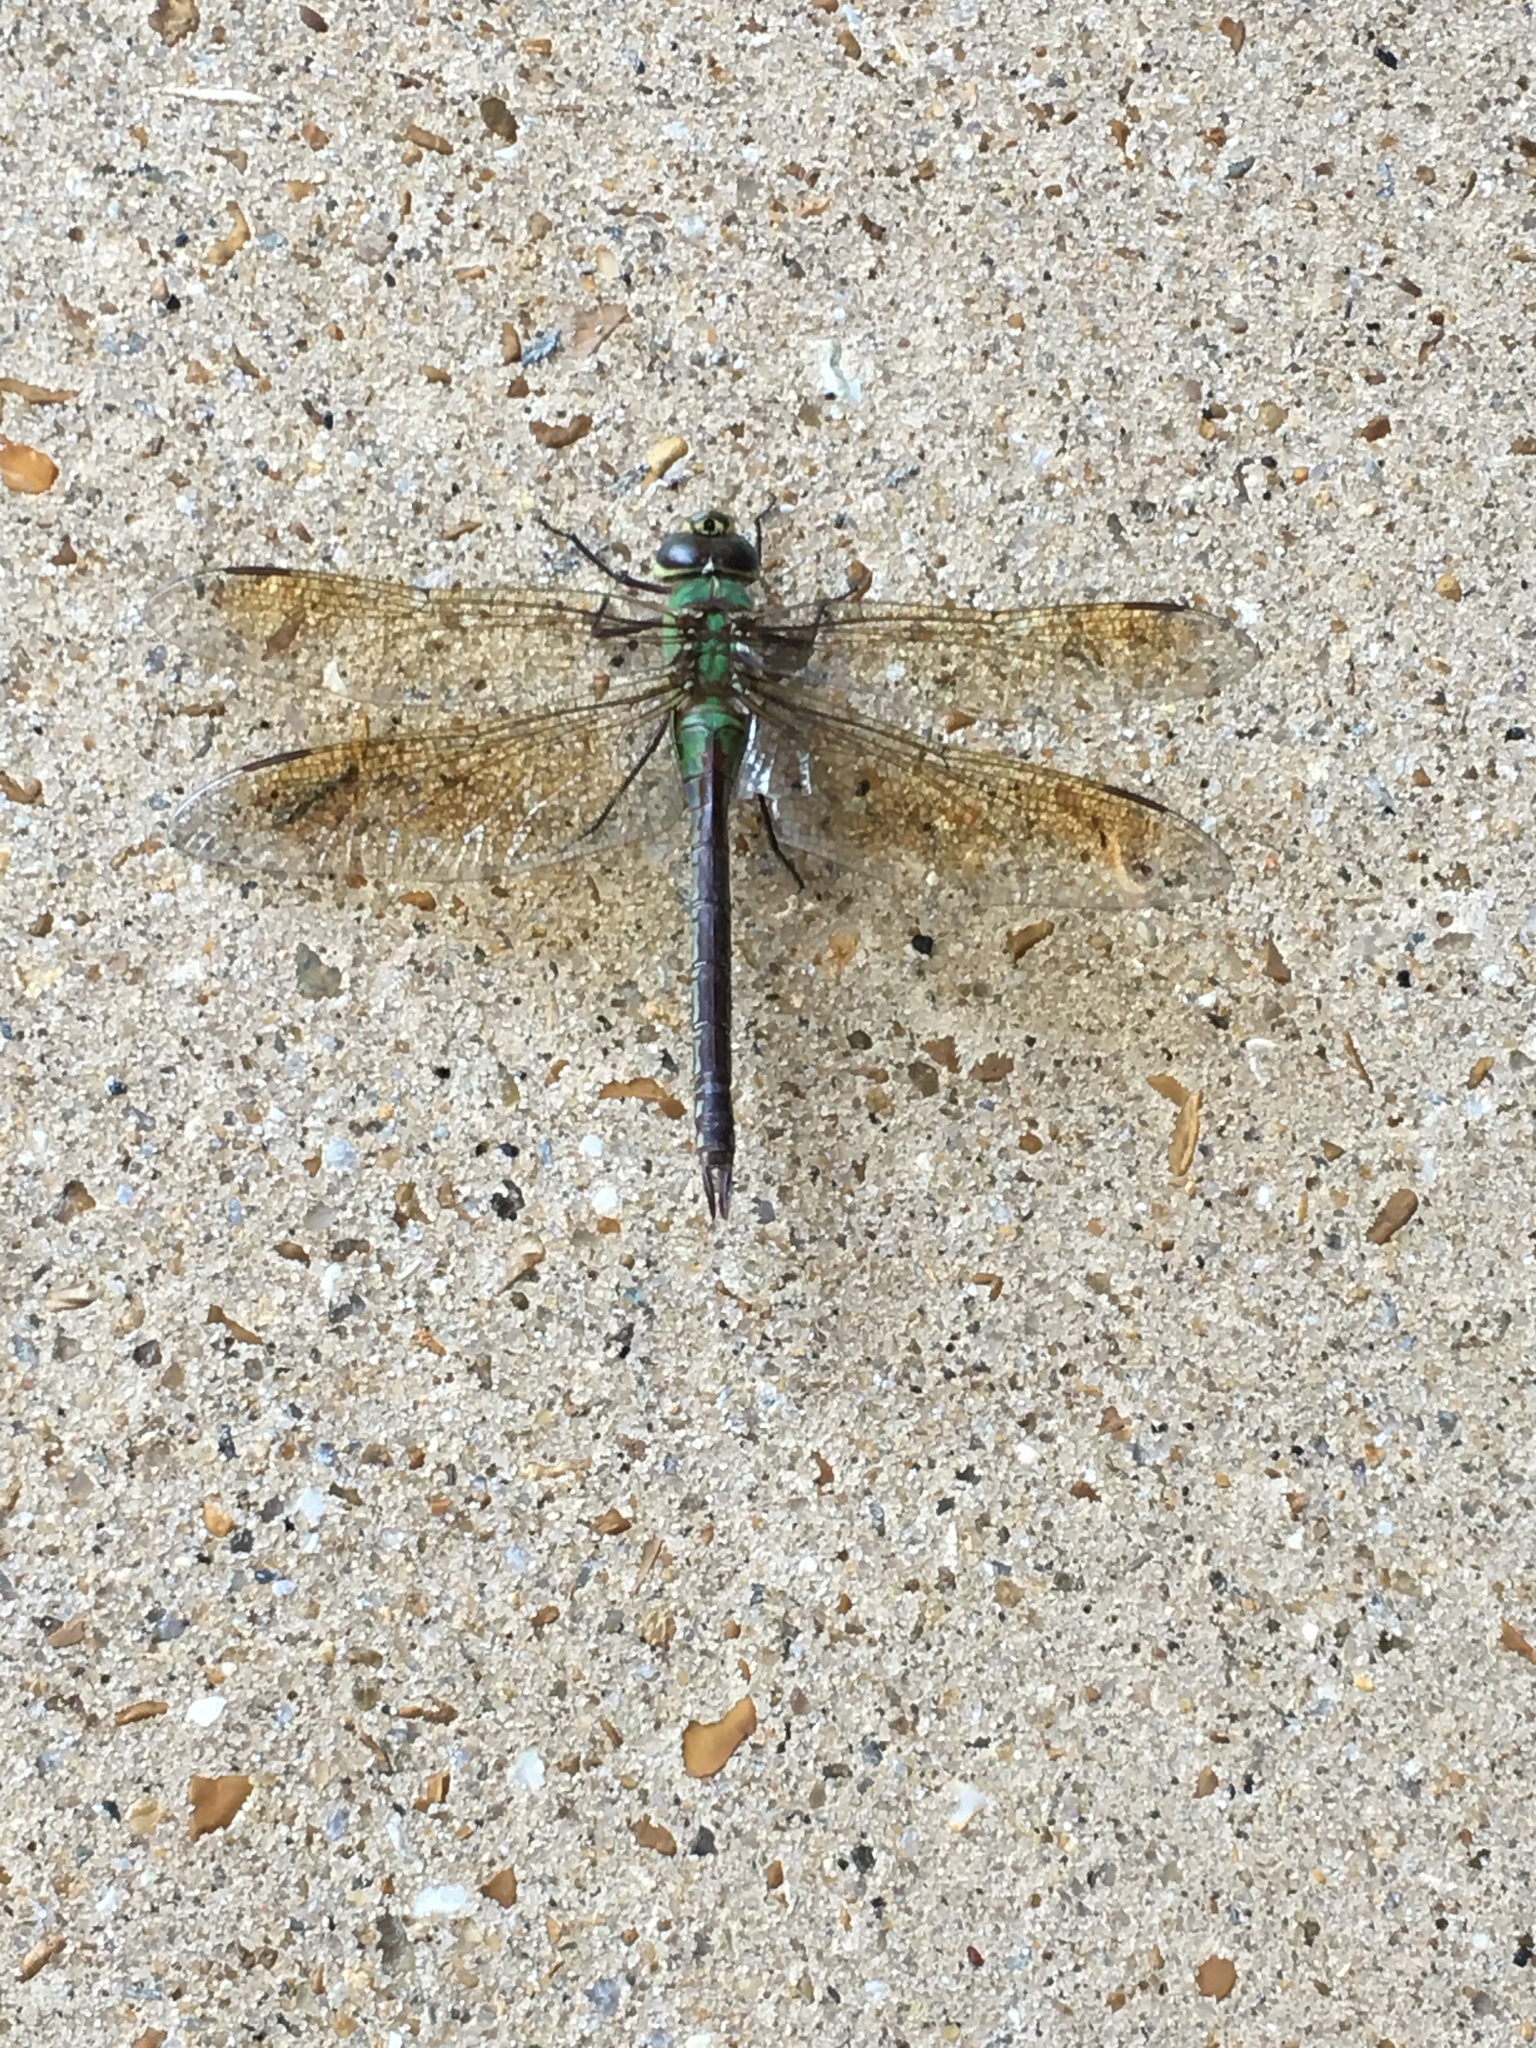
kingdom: Animalia
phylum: Arthropoda
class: Insecta
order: Odonata
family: Aeshnidae
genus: Anax
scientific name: Anax junius
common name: Common green darner
